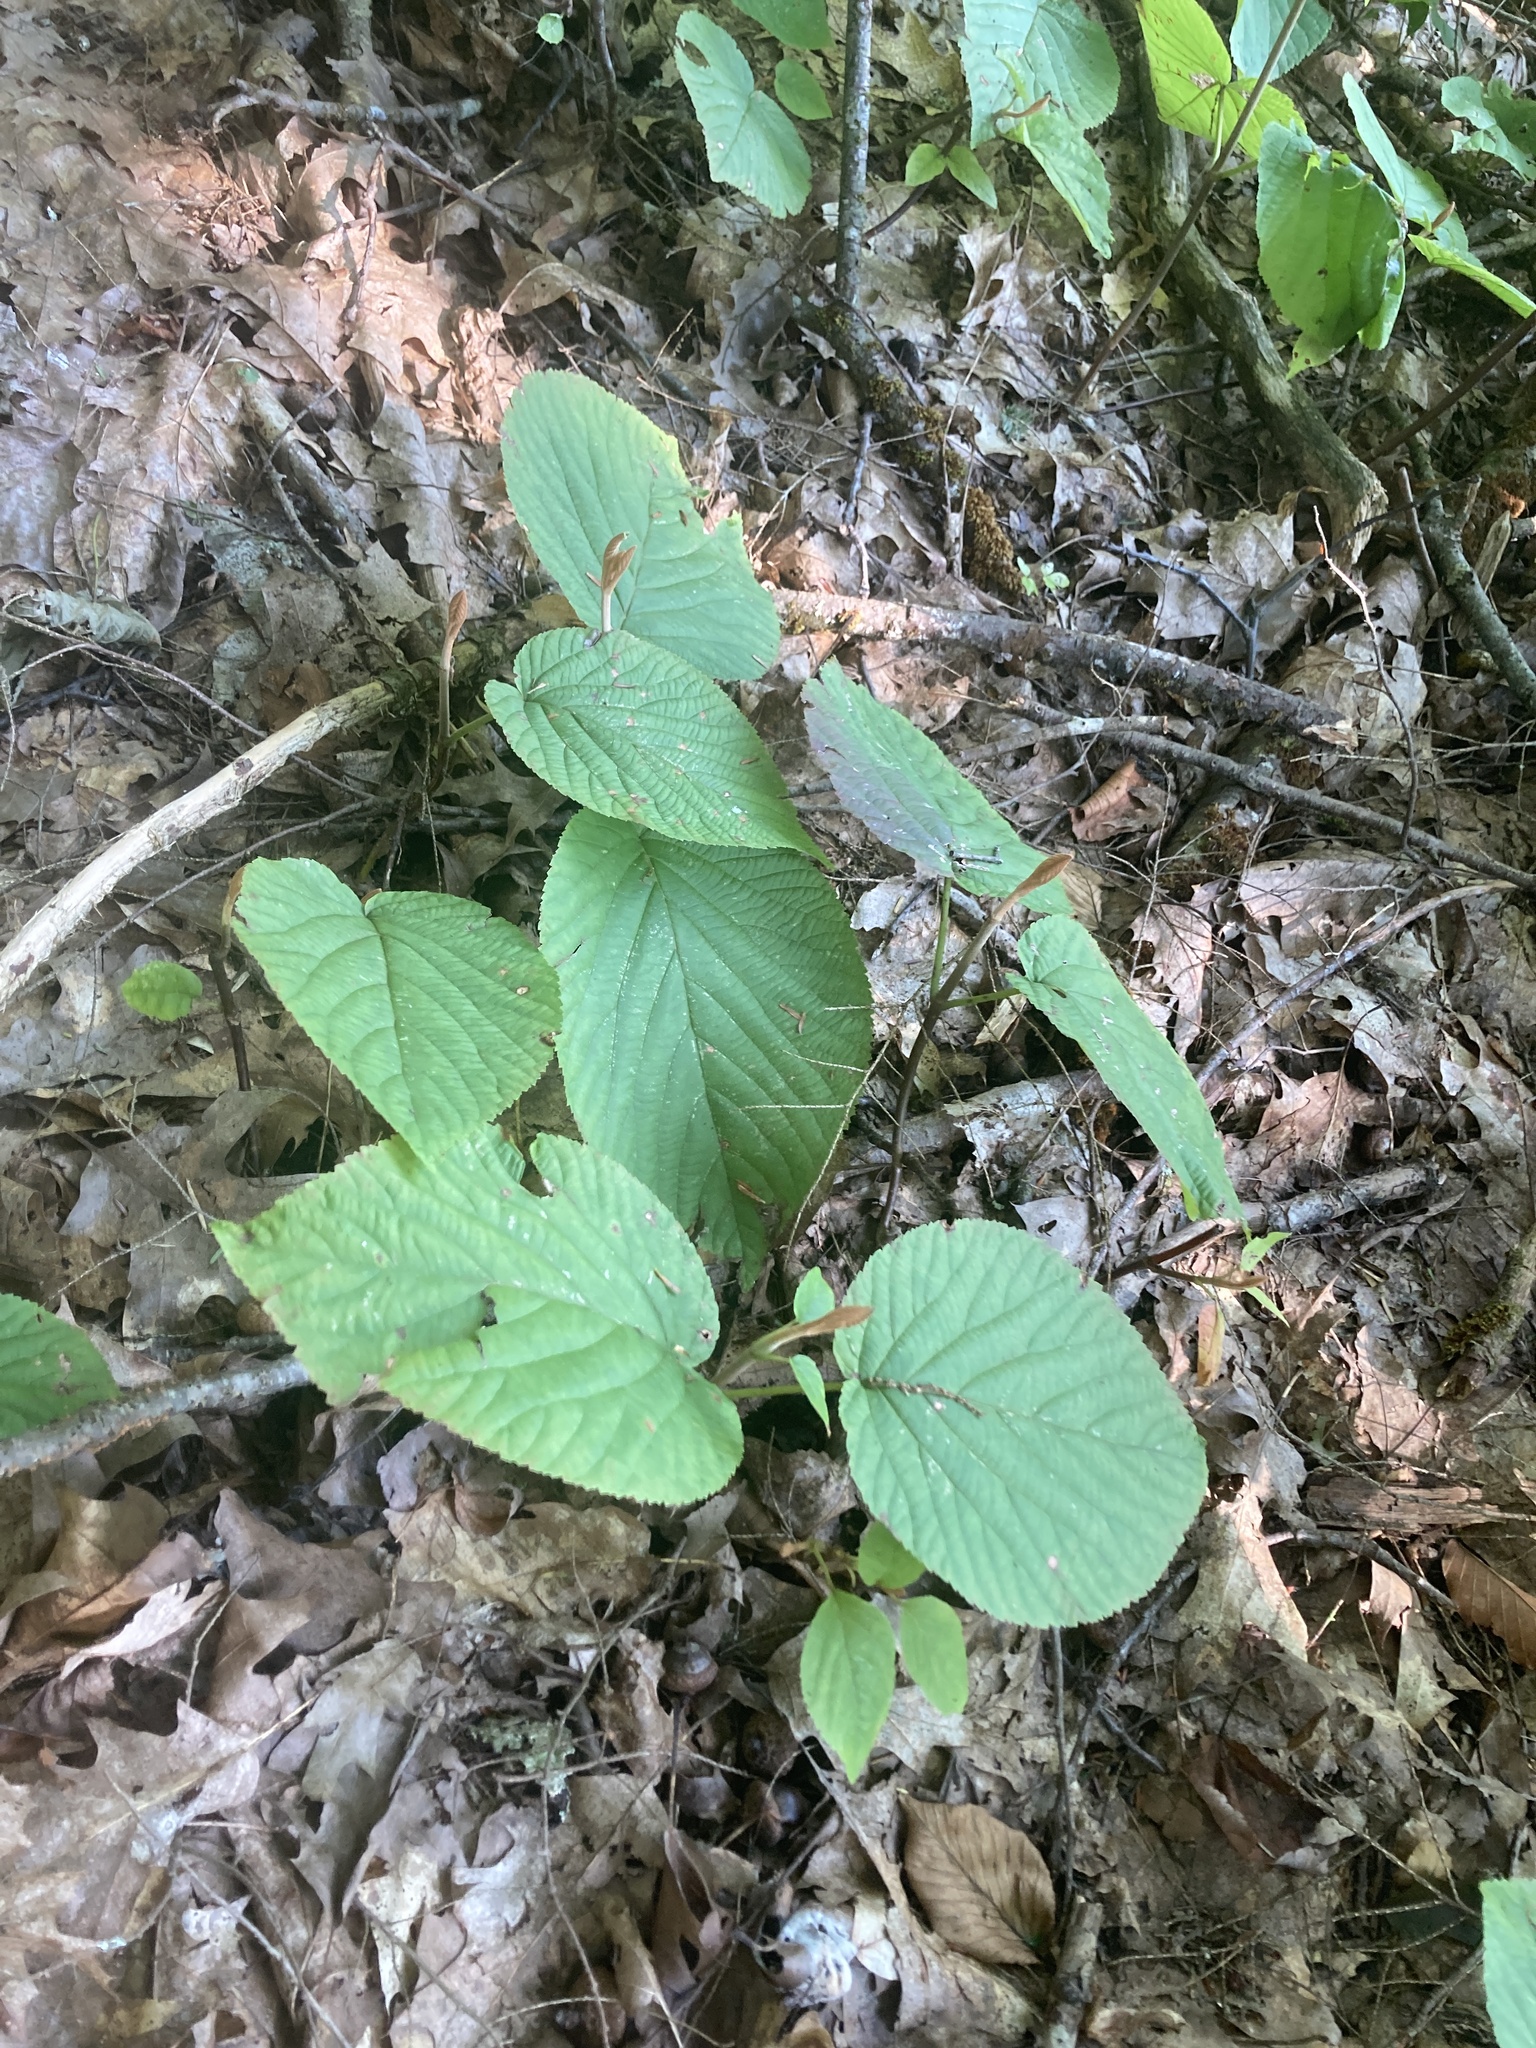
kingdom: Plantae
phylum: Tracheophyta
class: Magnoliopsida
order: Dipsacales
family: Viburnaceae
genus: Viburnum
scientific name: Viburnum lantanoides
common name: Hobblebush
